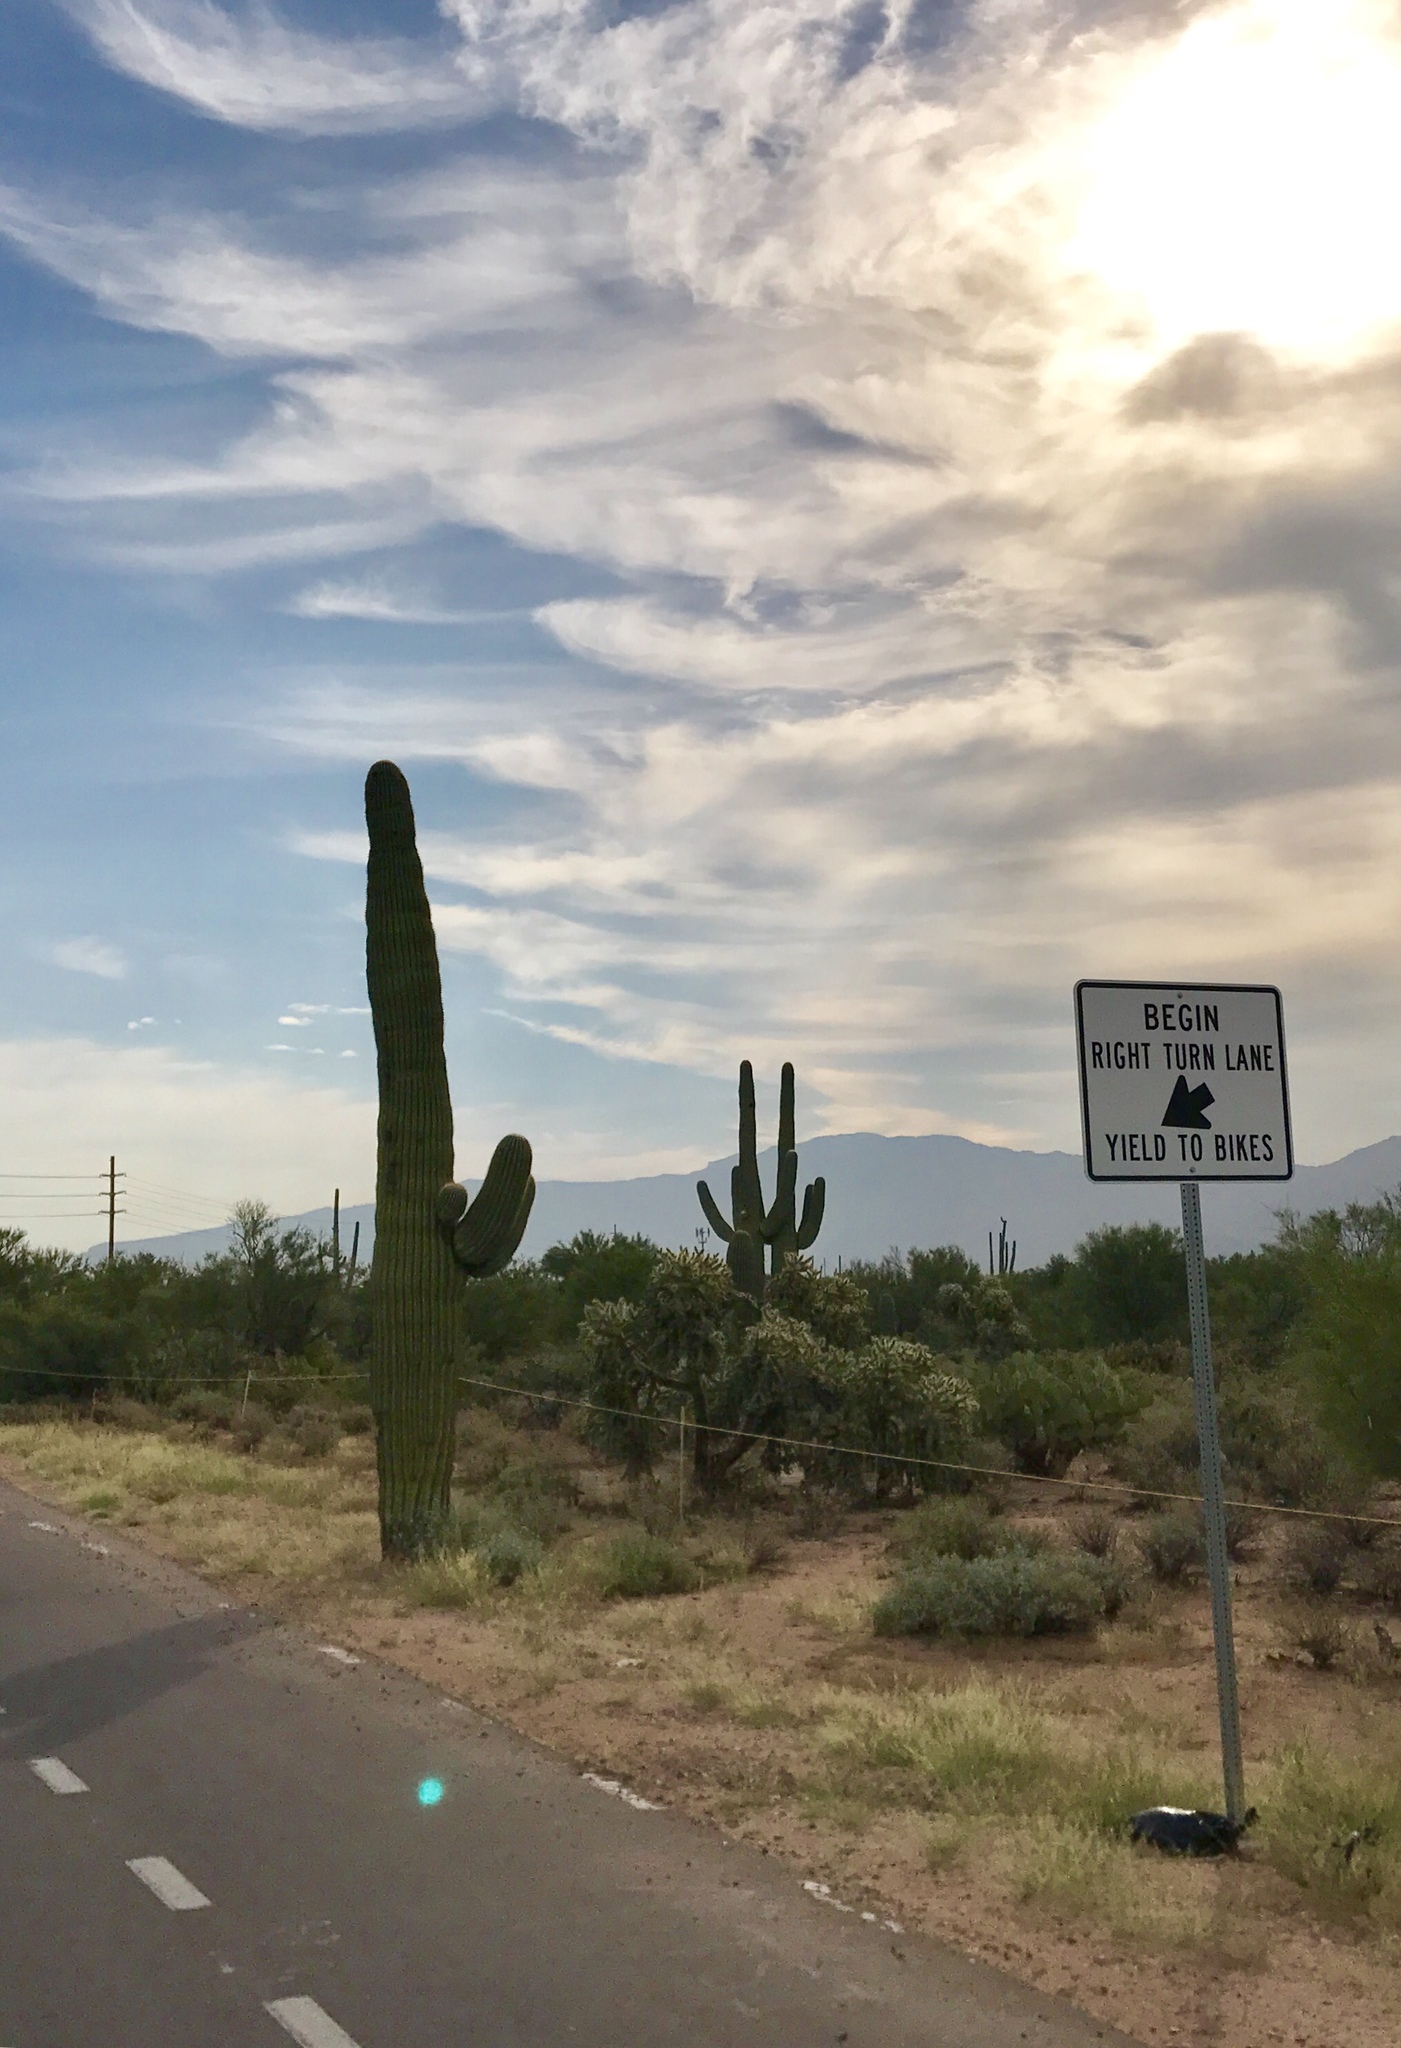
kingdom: Plantae
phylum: Tracheophyta
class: Magnoliopsida
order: Caryophyllales
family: Cactaceae
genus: Carnegiea
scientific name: Carnegiea gigantea
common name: Saguaro
